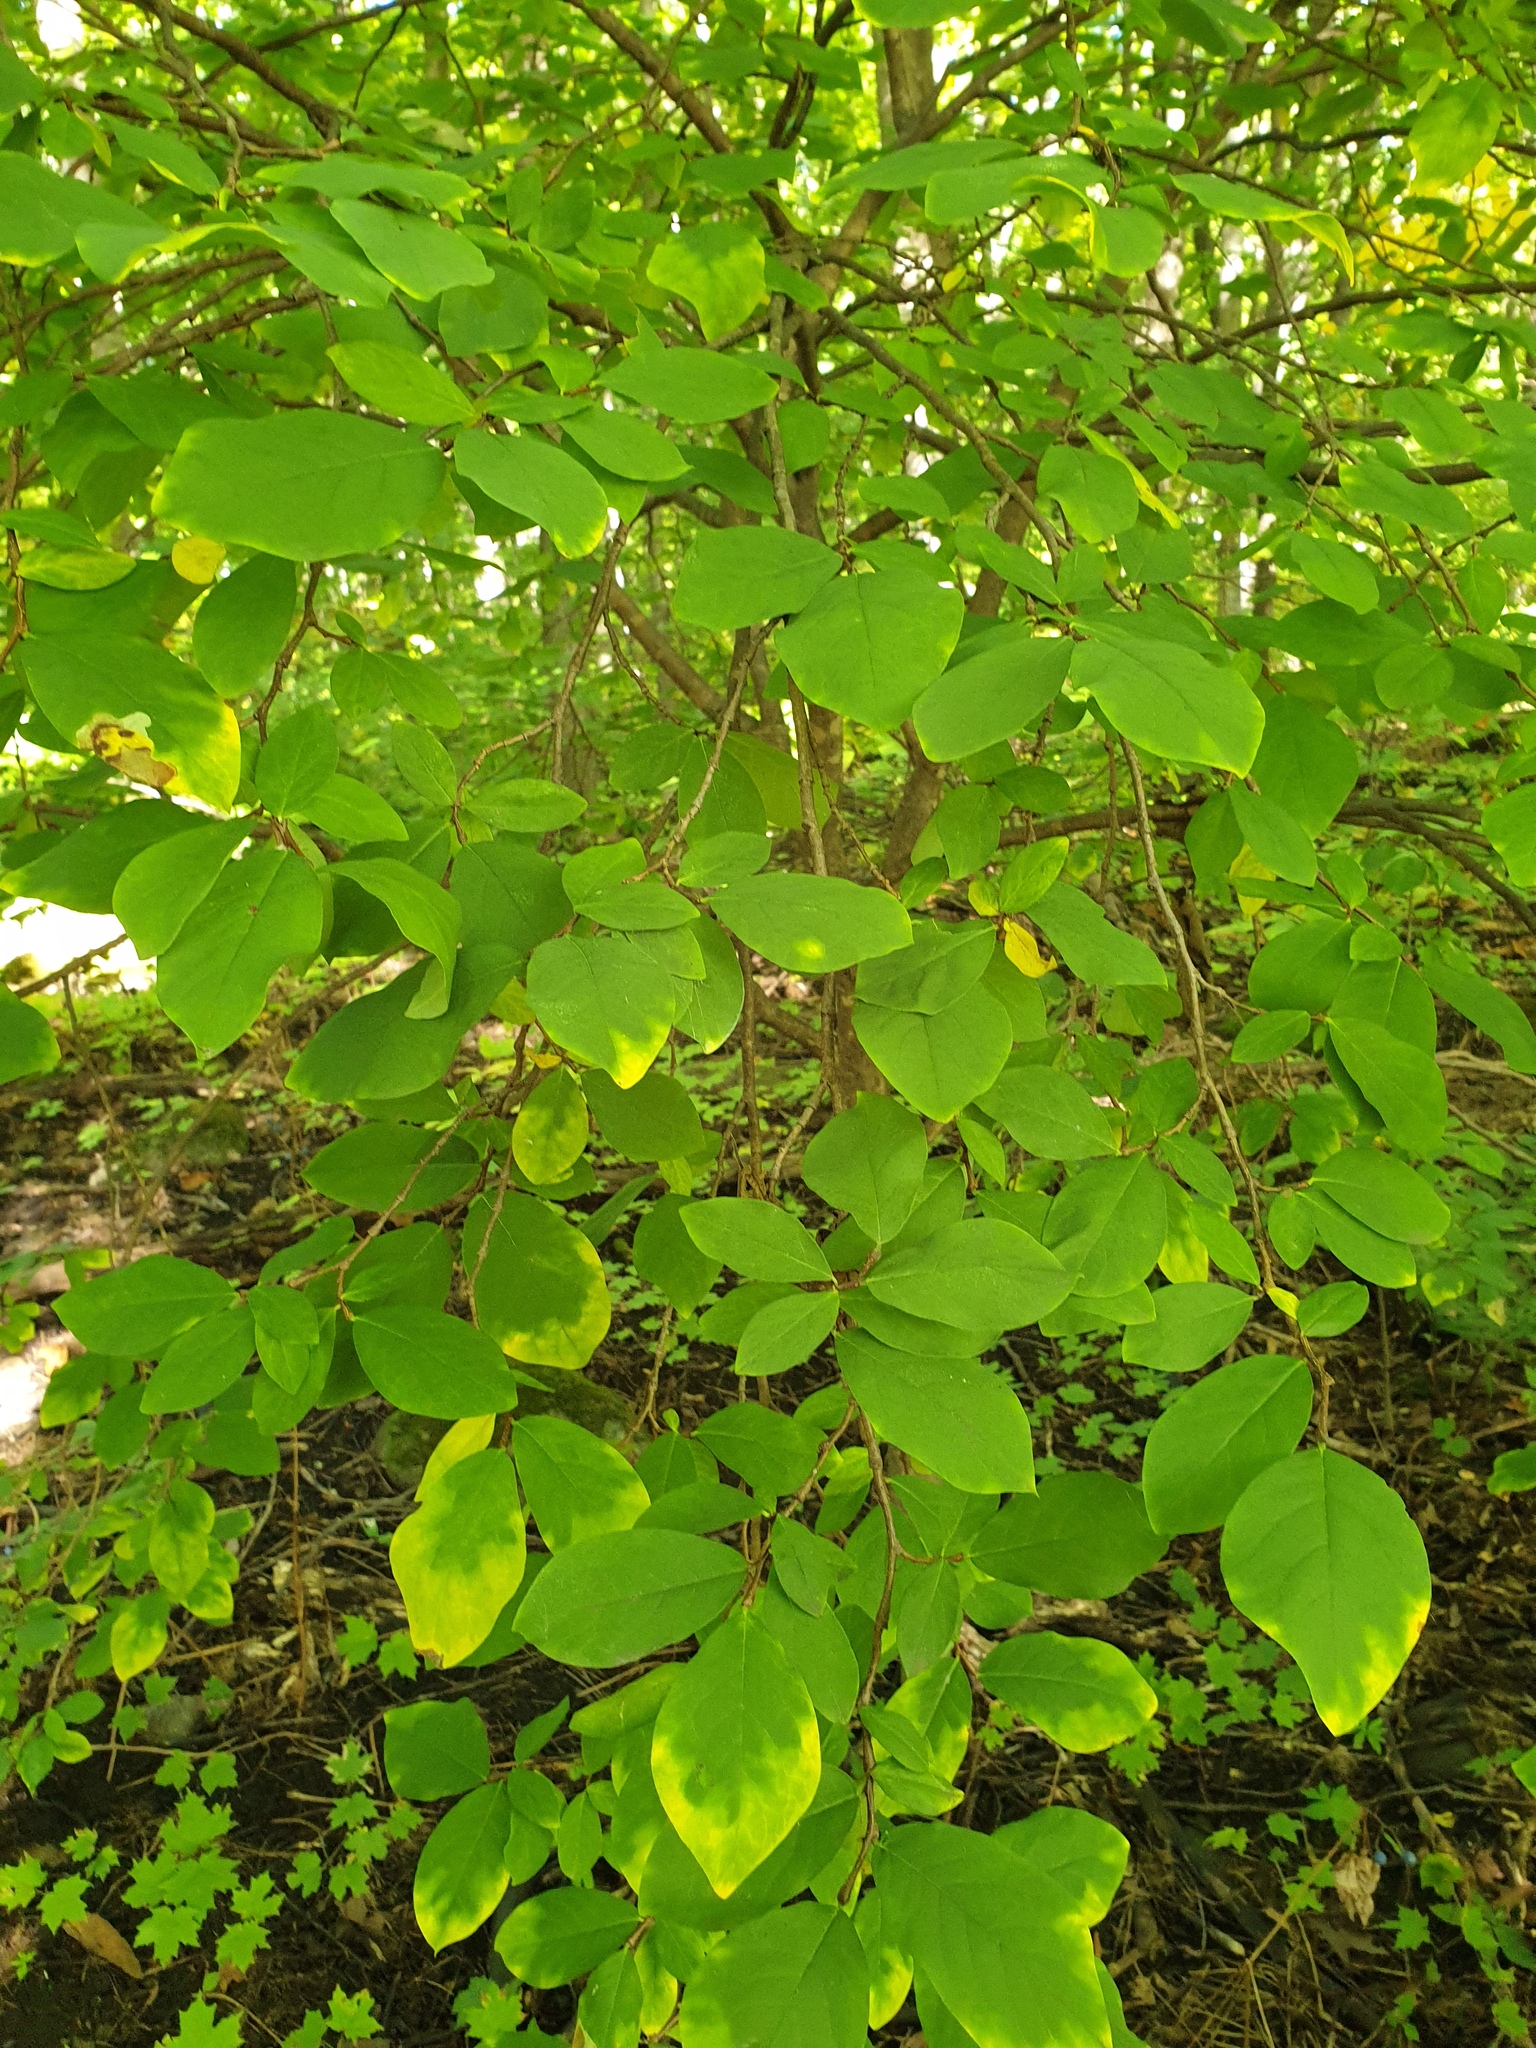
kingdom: Plantae
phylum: Tracheophyta
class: Magnoliopsida
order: Malvales
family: Thymelaeaceae
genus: Dirca
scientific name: Dirca palustris
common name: Leatherwood
